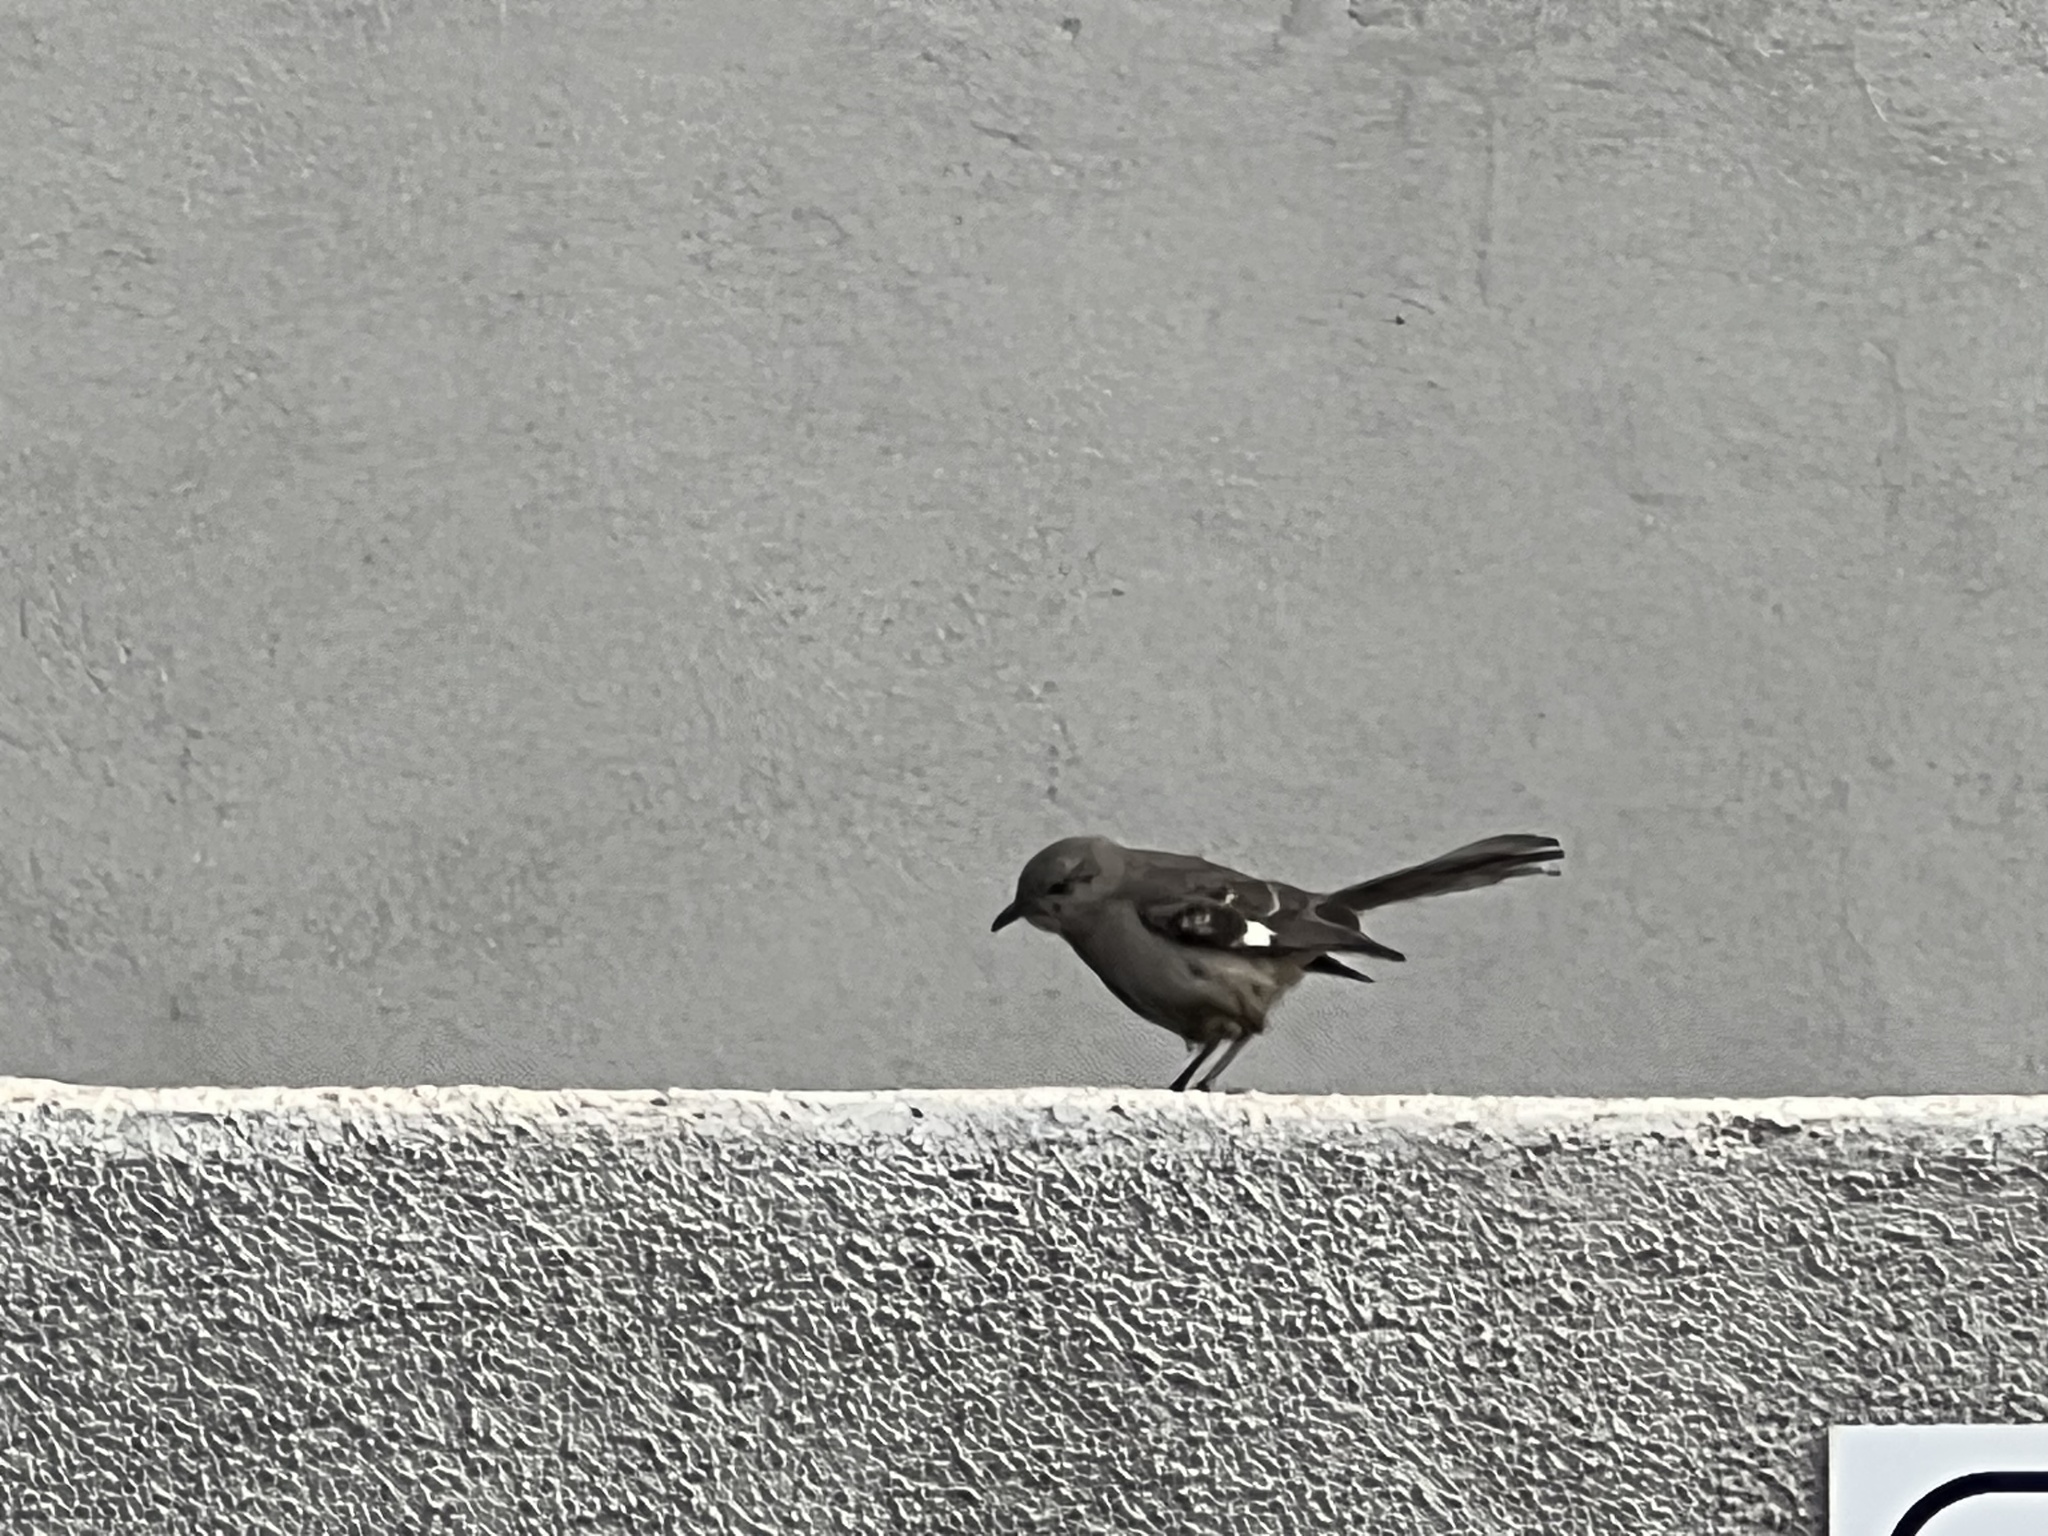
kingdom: Animalia
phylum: Chordata
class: Aves
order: Passeriformes
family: Mimidae
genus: Mimus
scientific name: Mimus polyglottos
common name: Northern mockingbird
